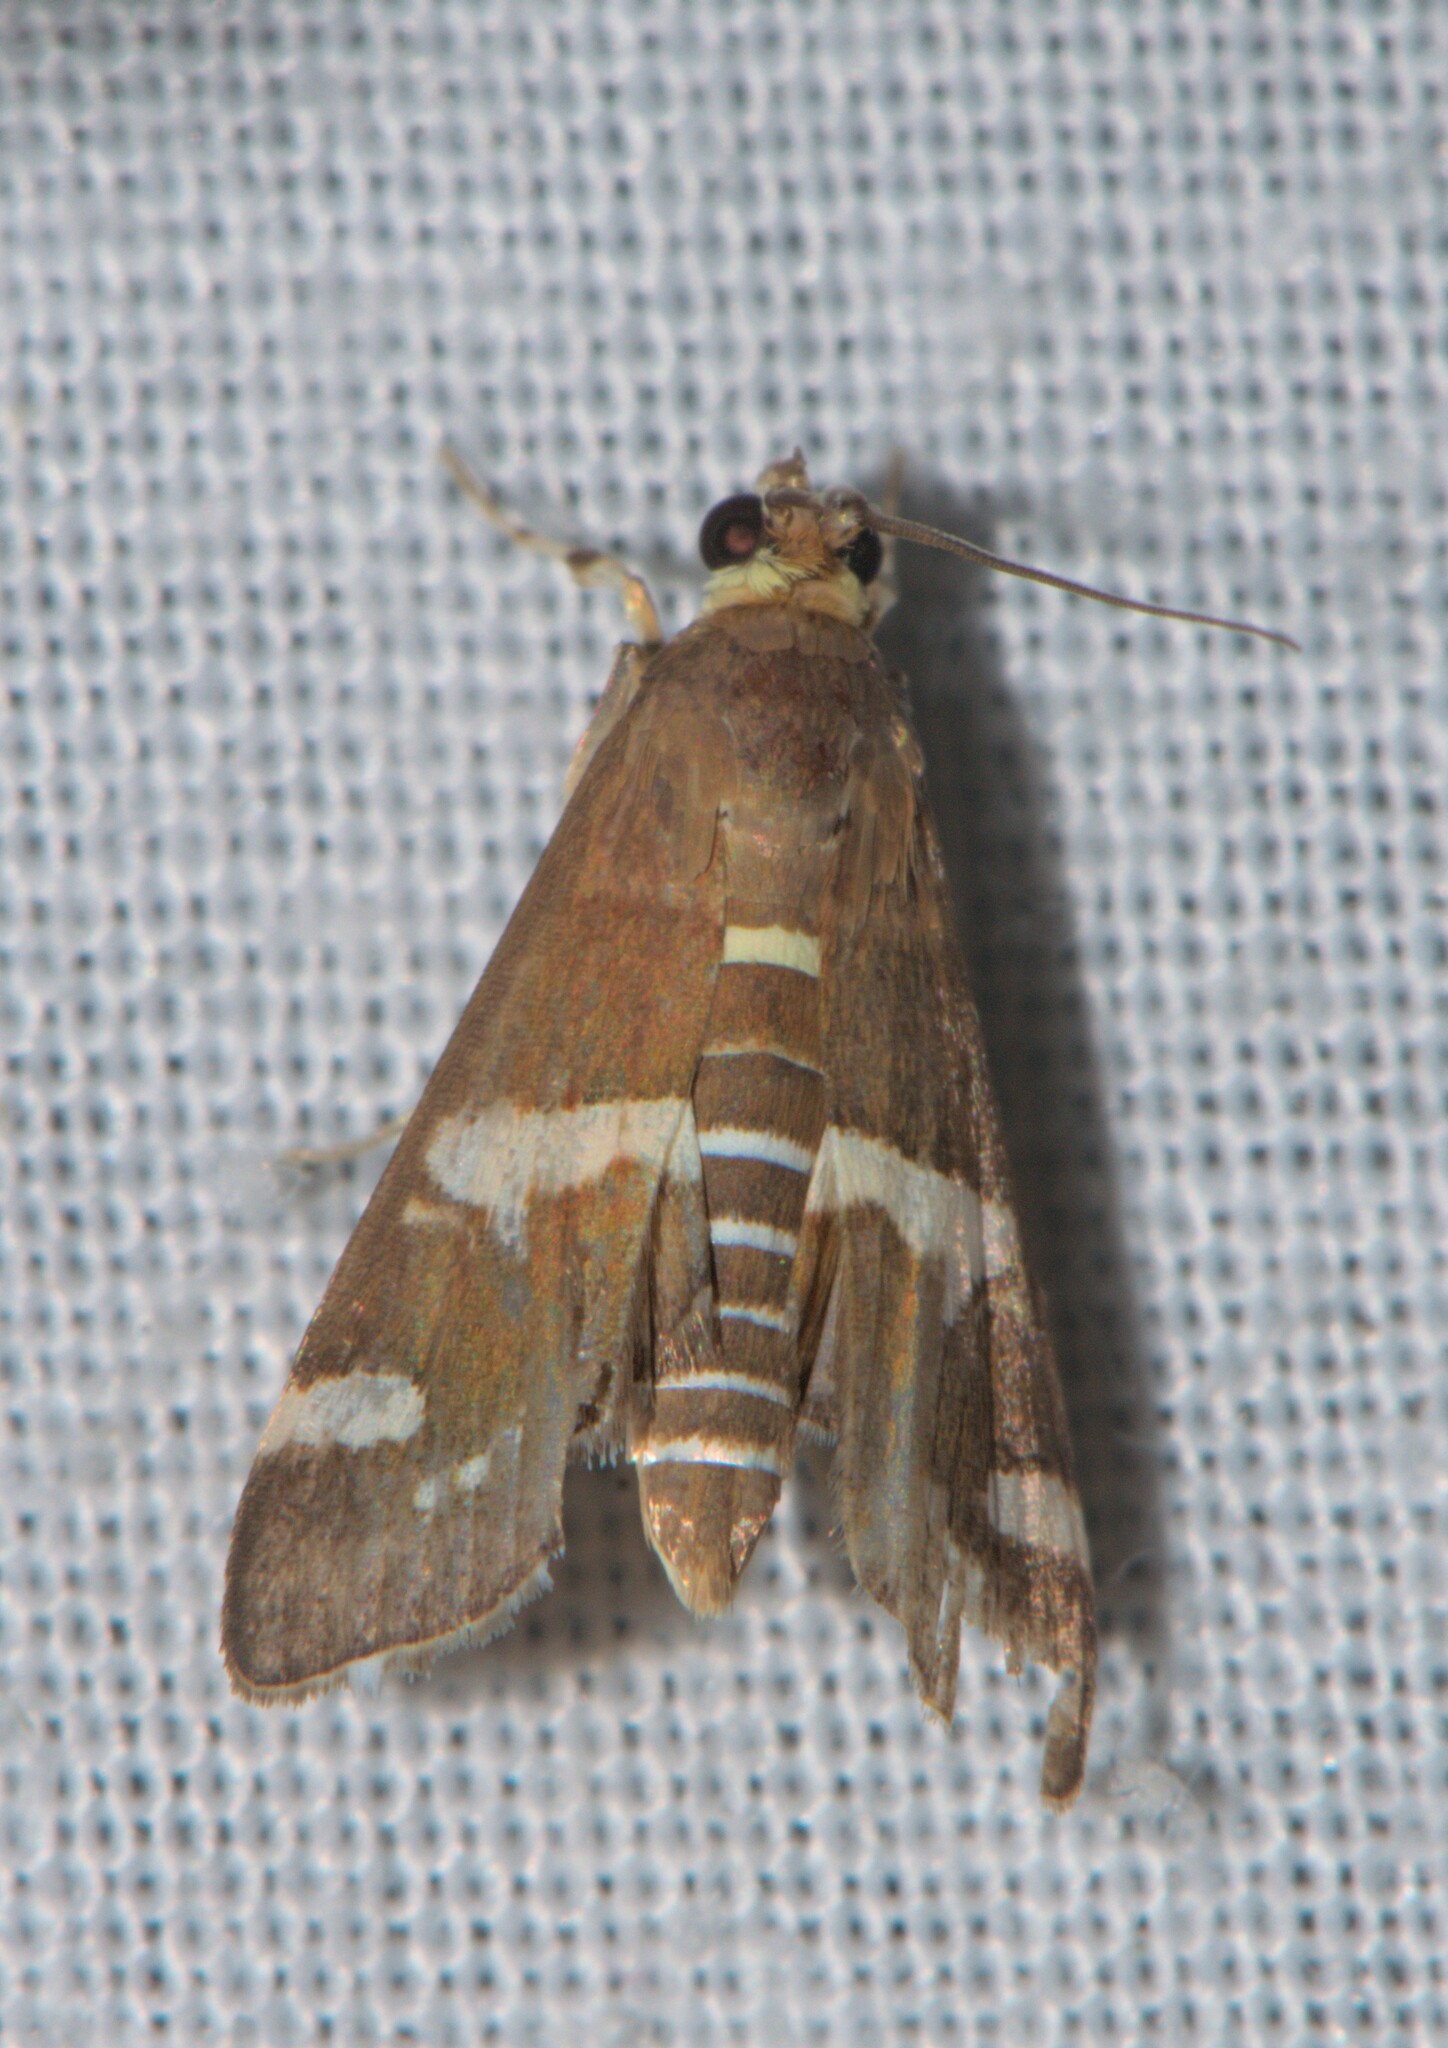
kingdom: Animalia
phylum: Arthropoda
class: Insecta
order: Lepidoptera
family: Crambidae
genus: Spoladea
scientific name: Spoladea recurvalis
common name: Beet webworm moth
